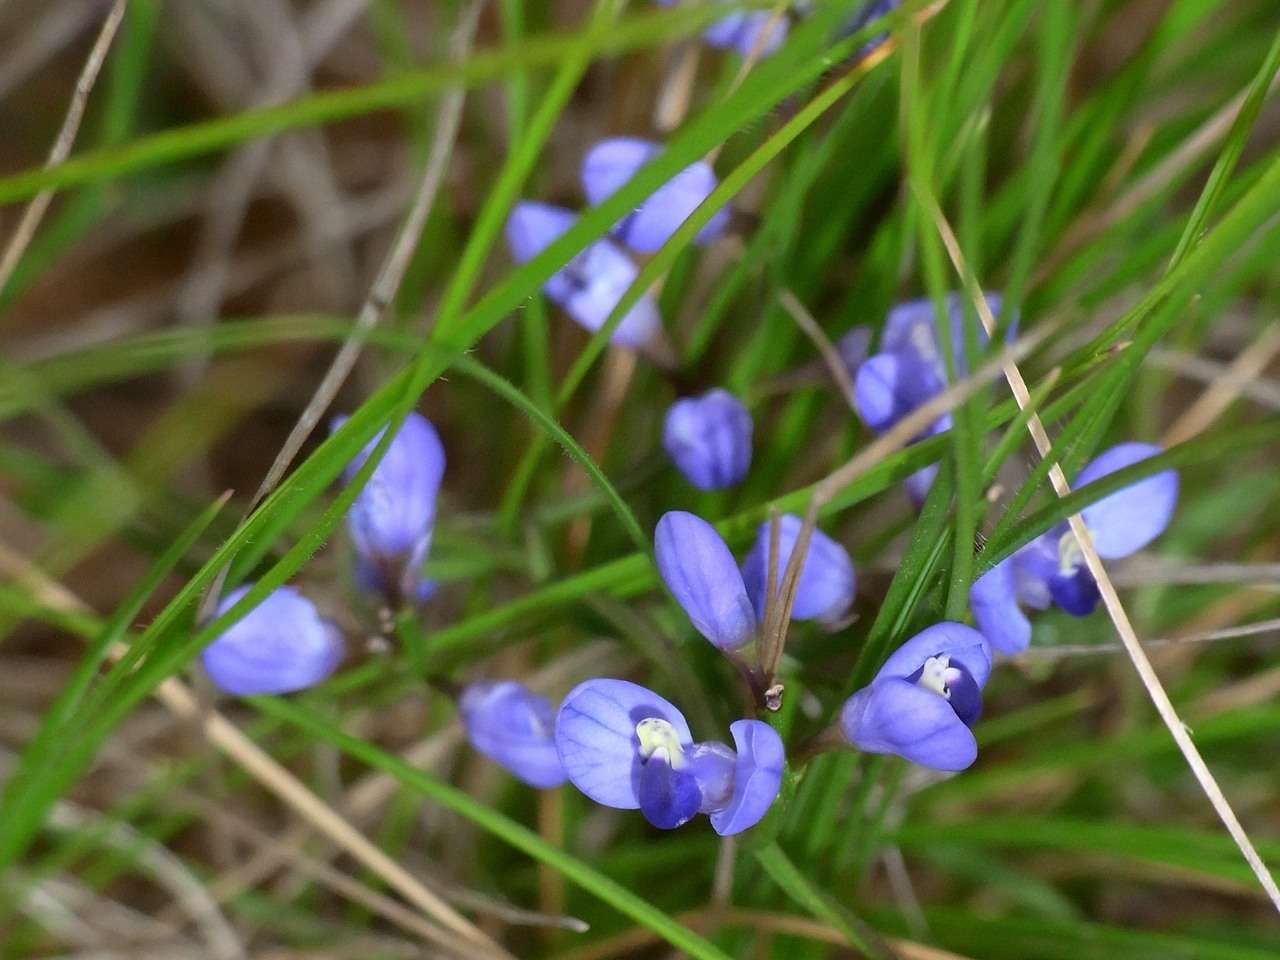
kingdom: Plantae
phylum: Tracheophyta
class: Magnoliopsida
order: Fabales
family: Polygalaceae
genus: Comesperma
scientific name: Comesperma volubile
